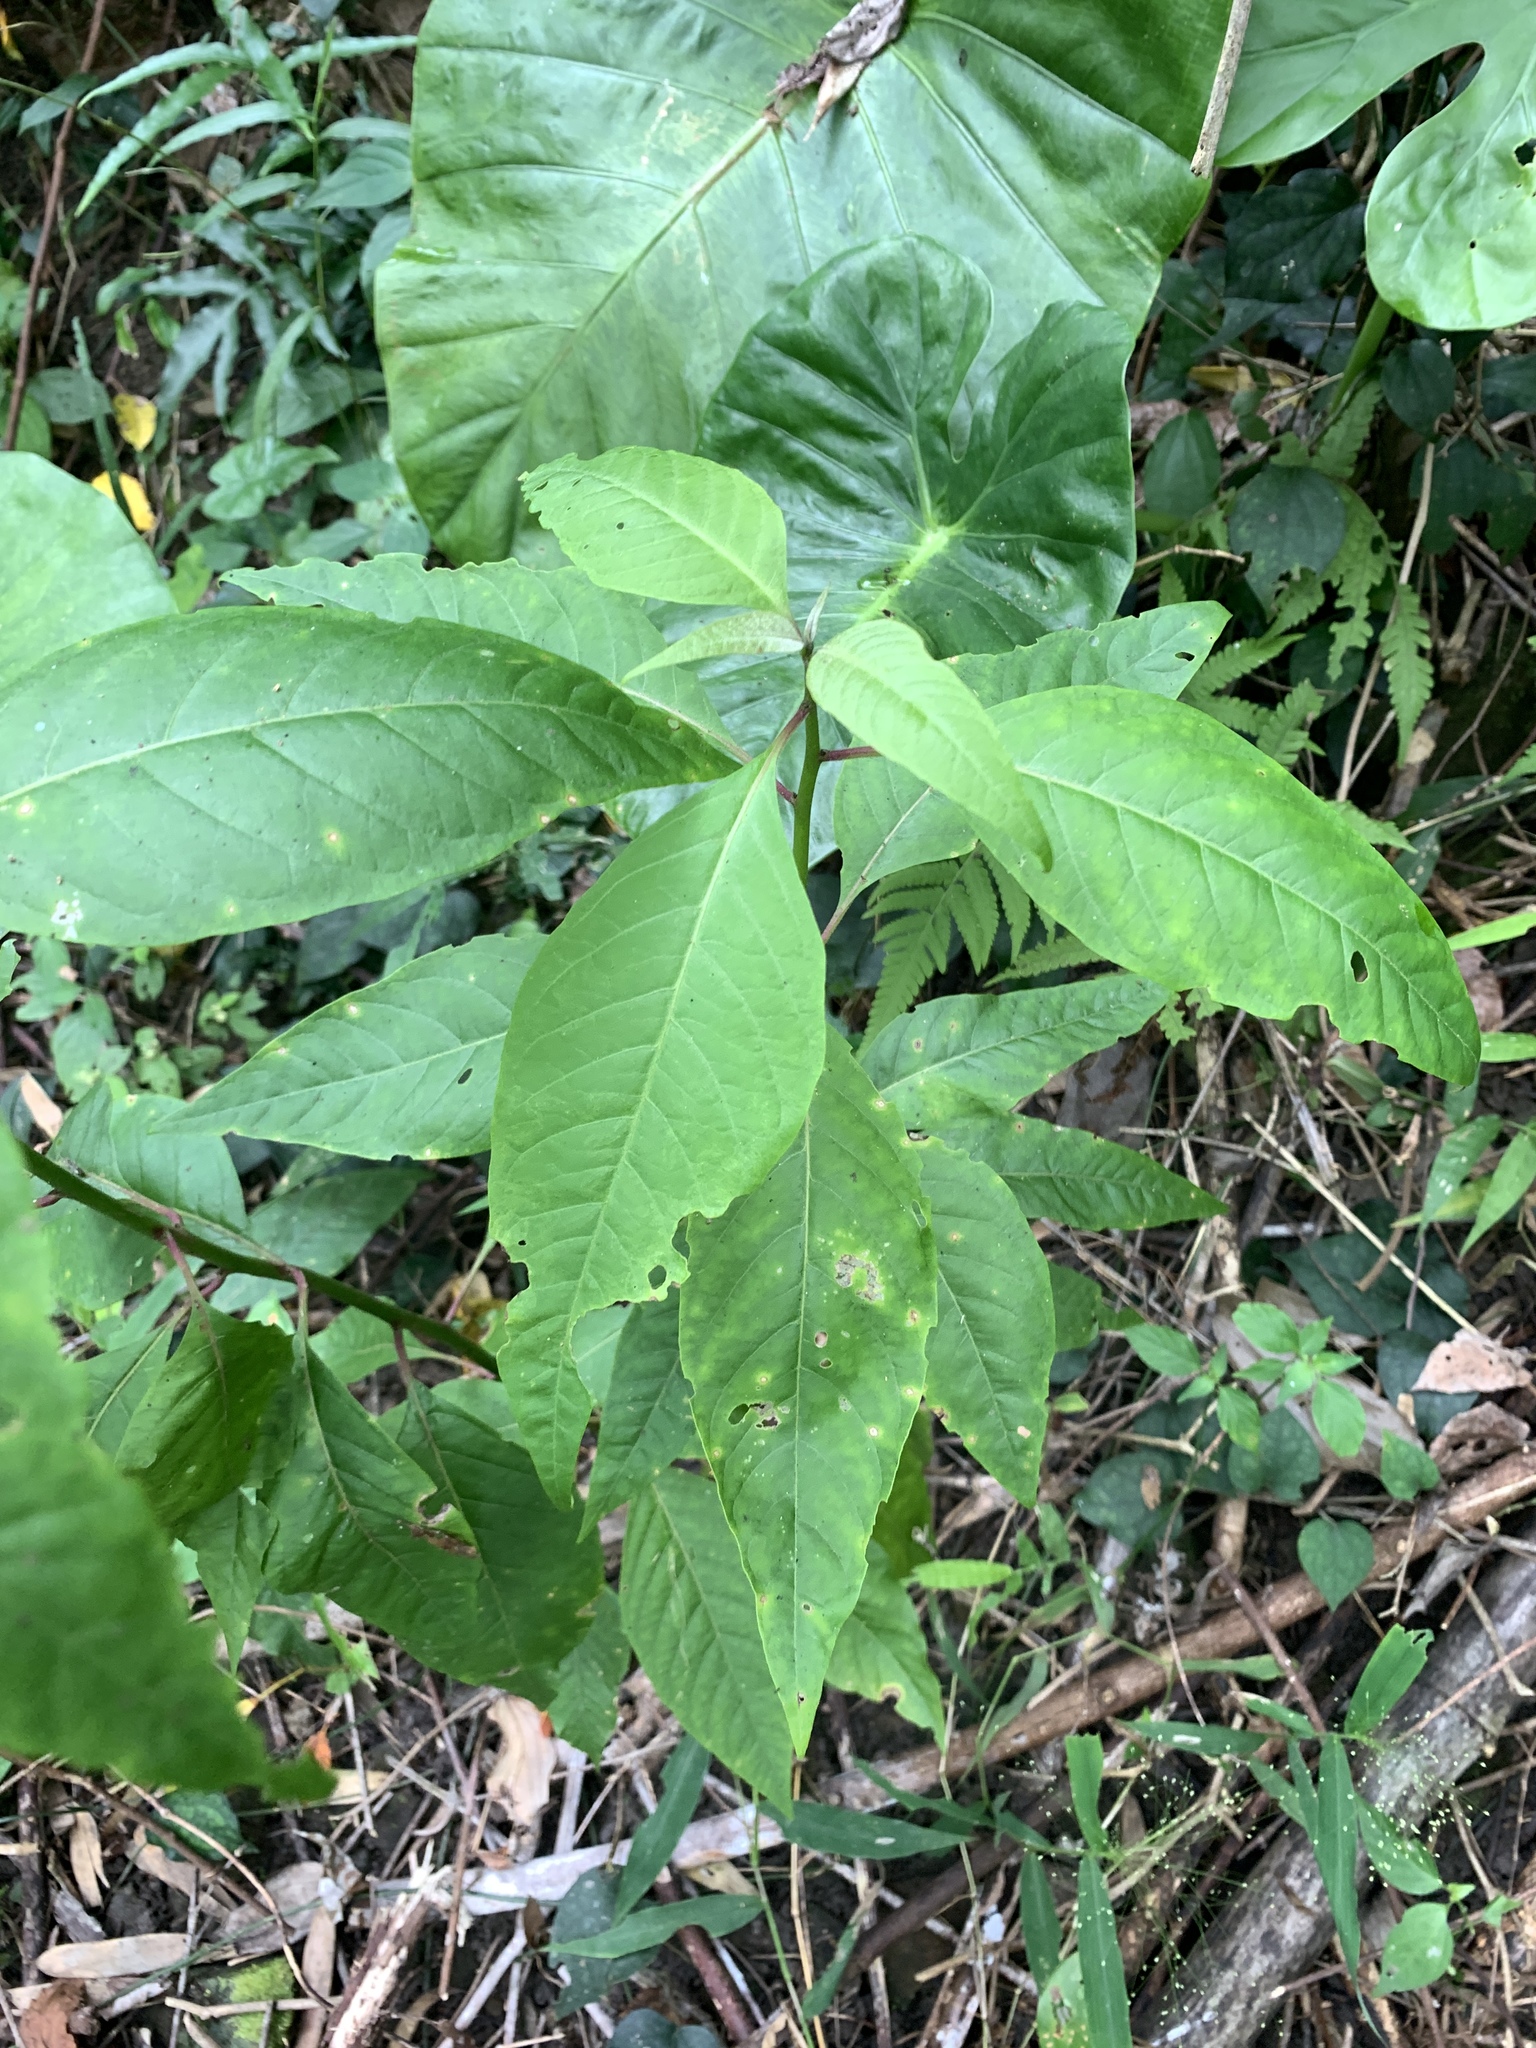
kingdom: Plantae
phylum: Tracheophyta
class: Magnoliopsida
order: Caryophyllales
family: Amaranthaceae
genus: Deeringia
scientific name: Deeringia polysperma
